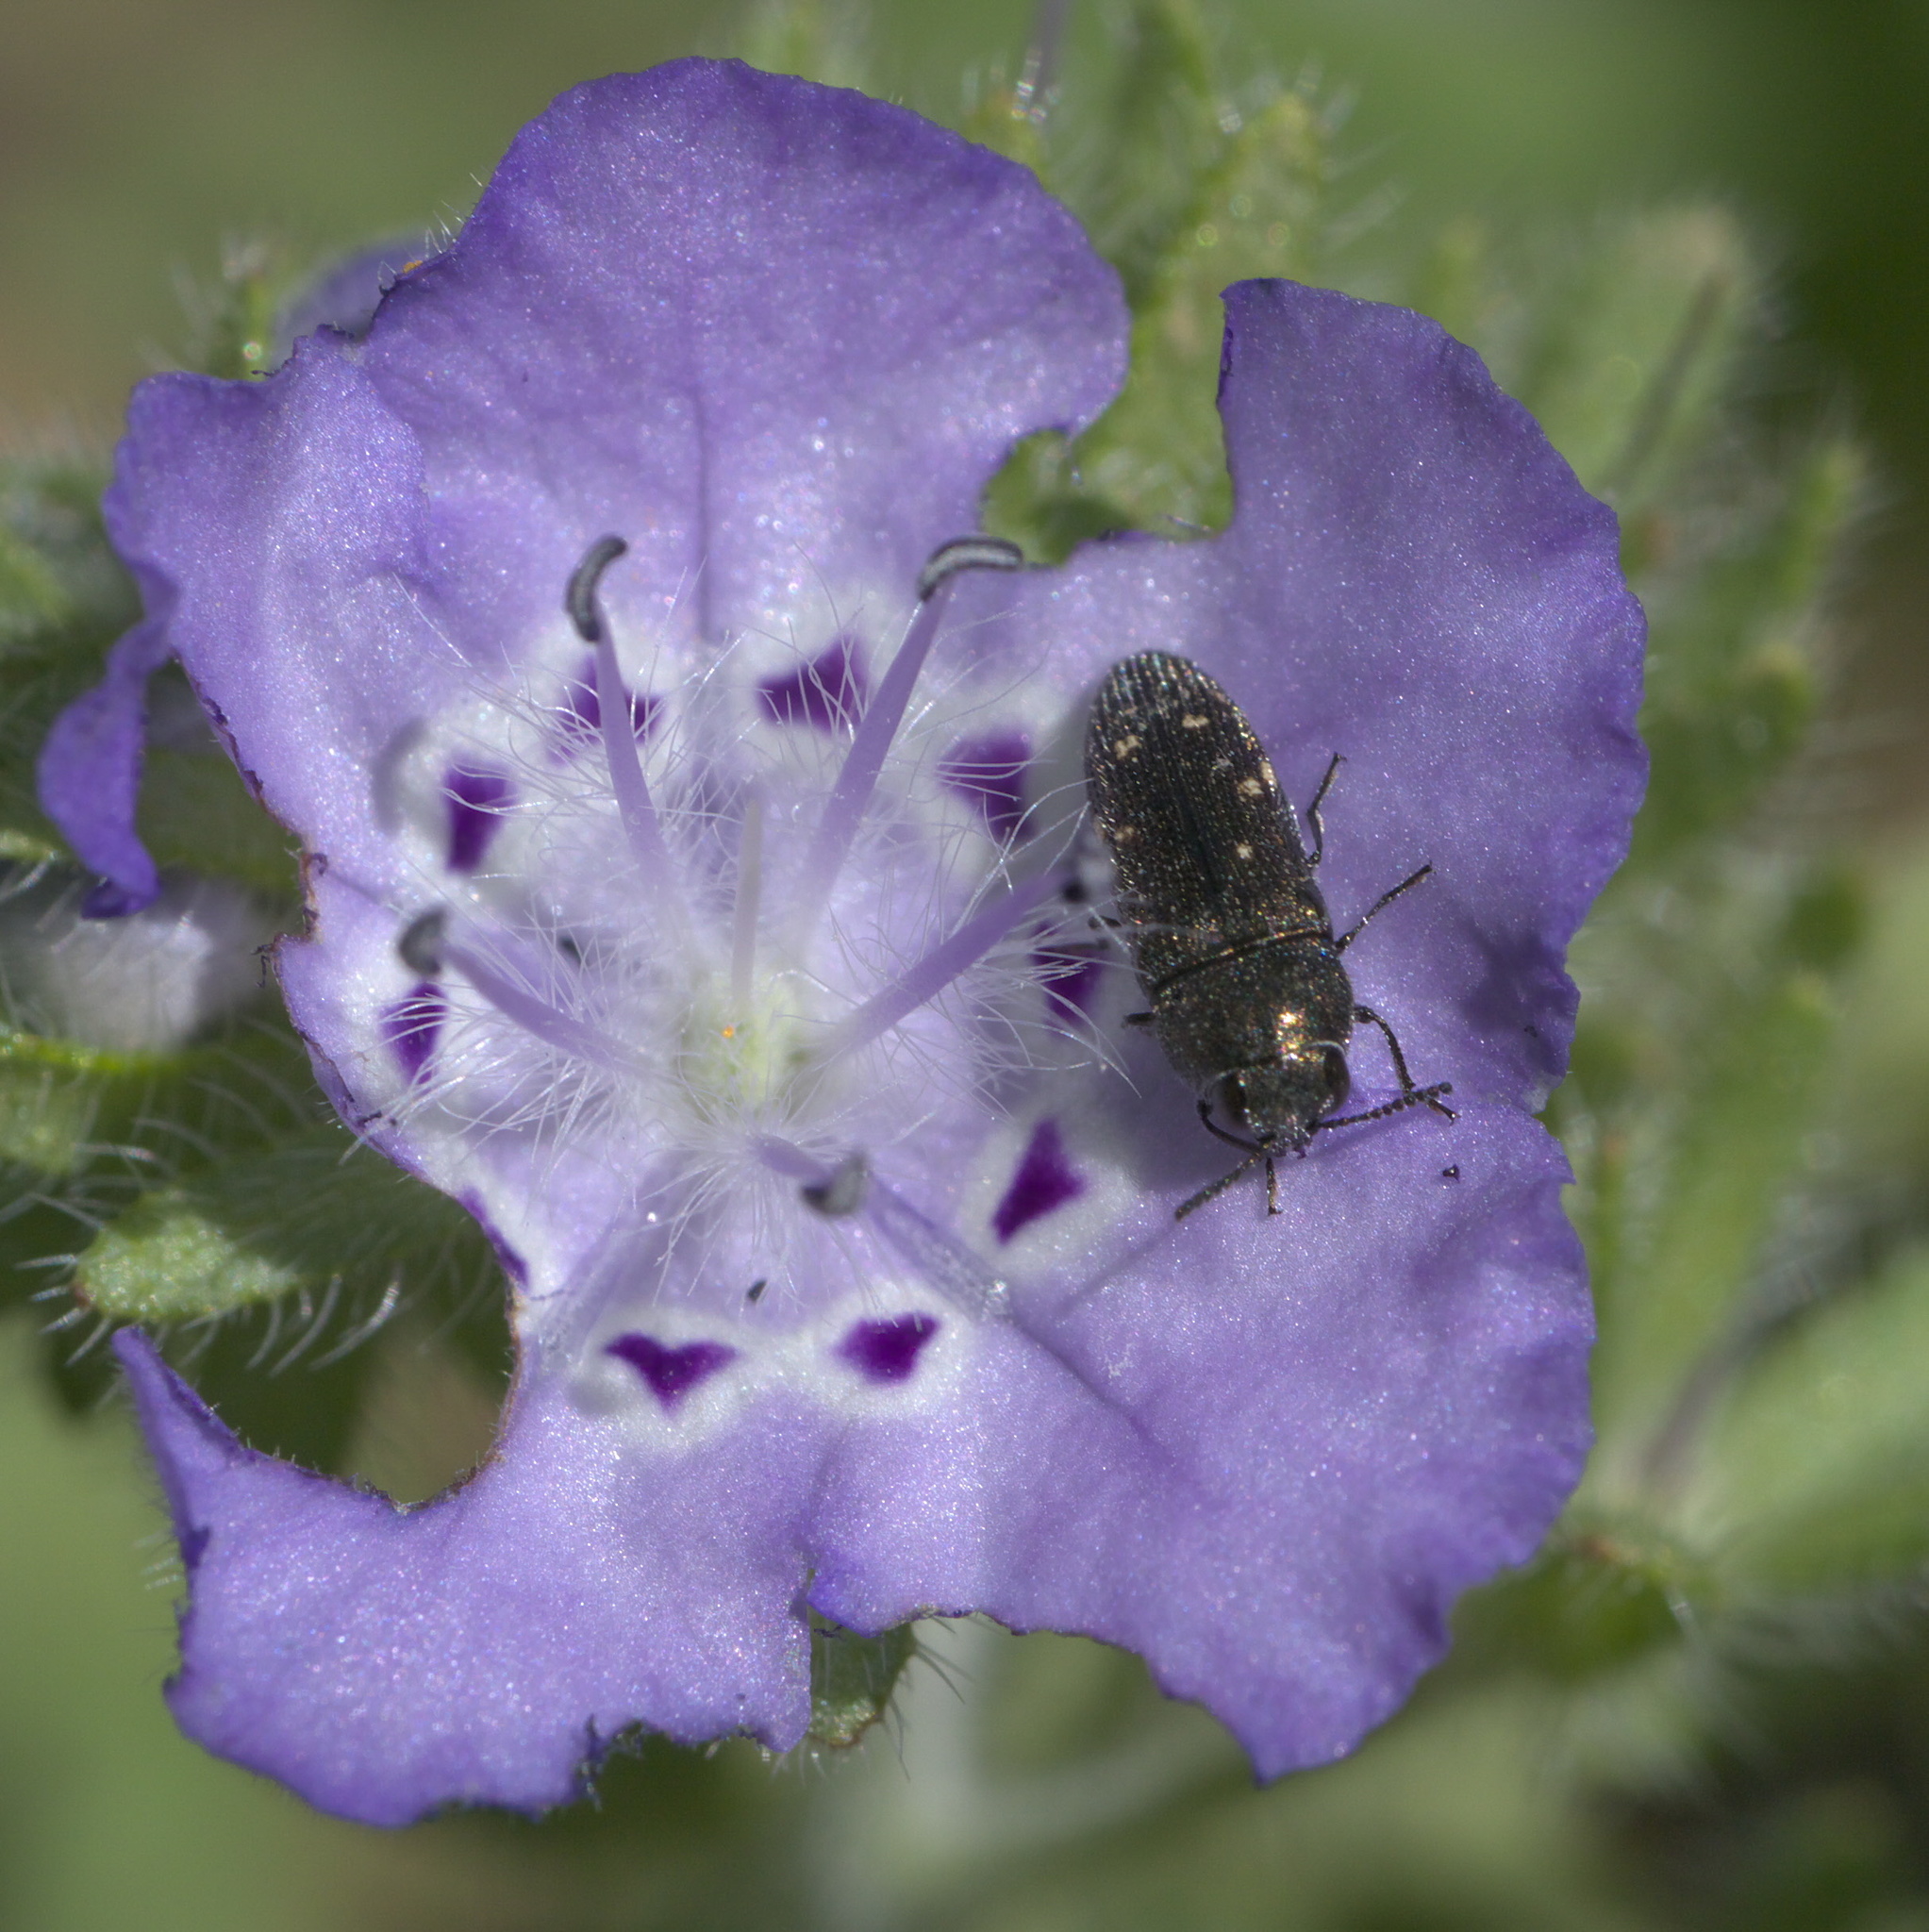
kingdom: Animalia
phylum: Arthropoda
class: Insecta
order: Coleoptera
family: Buprestidae
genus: Acmaeodera
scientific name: Acmaeodera tubulus
